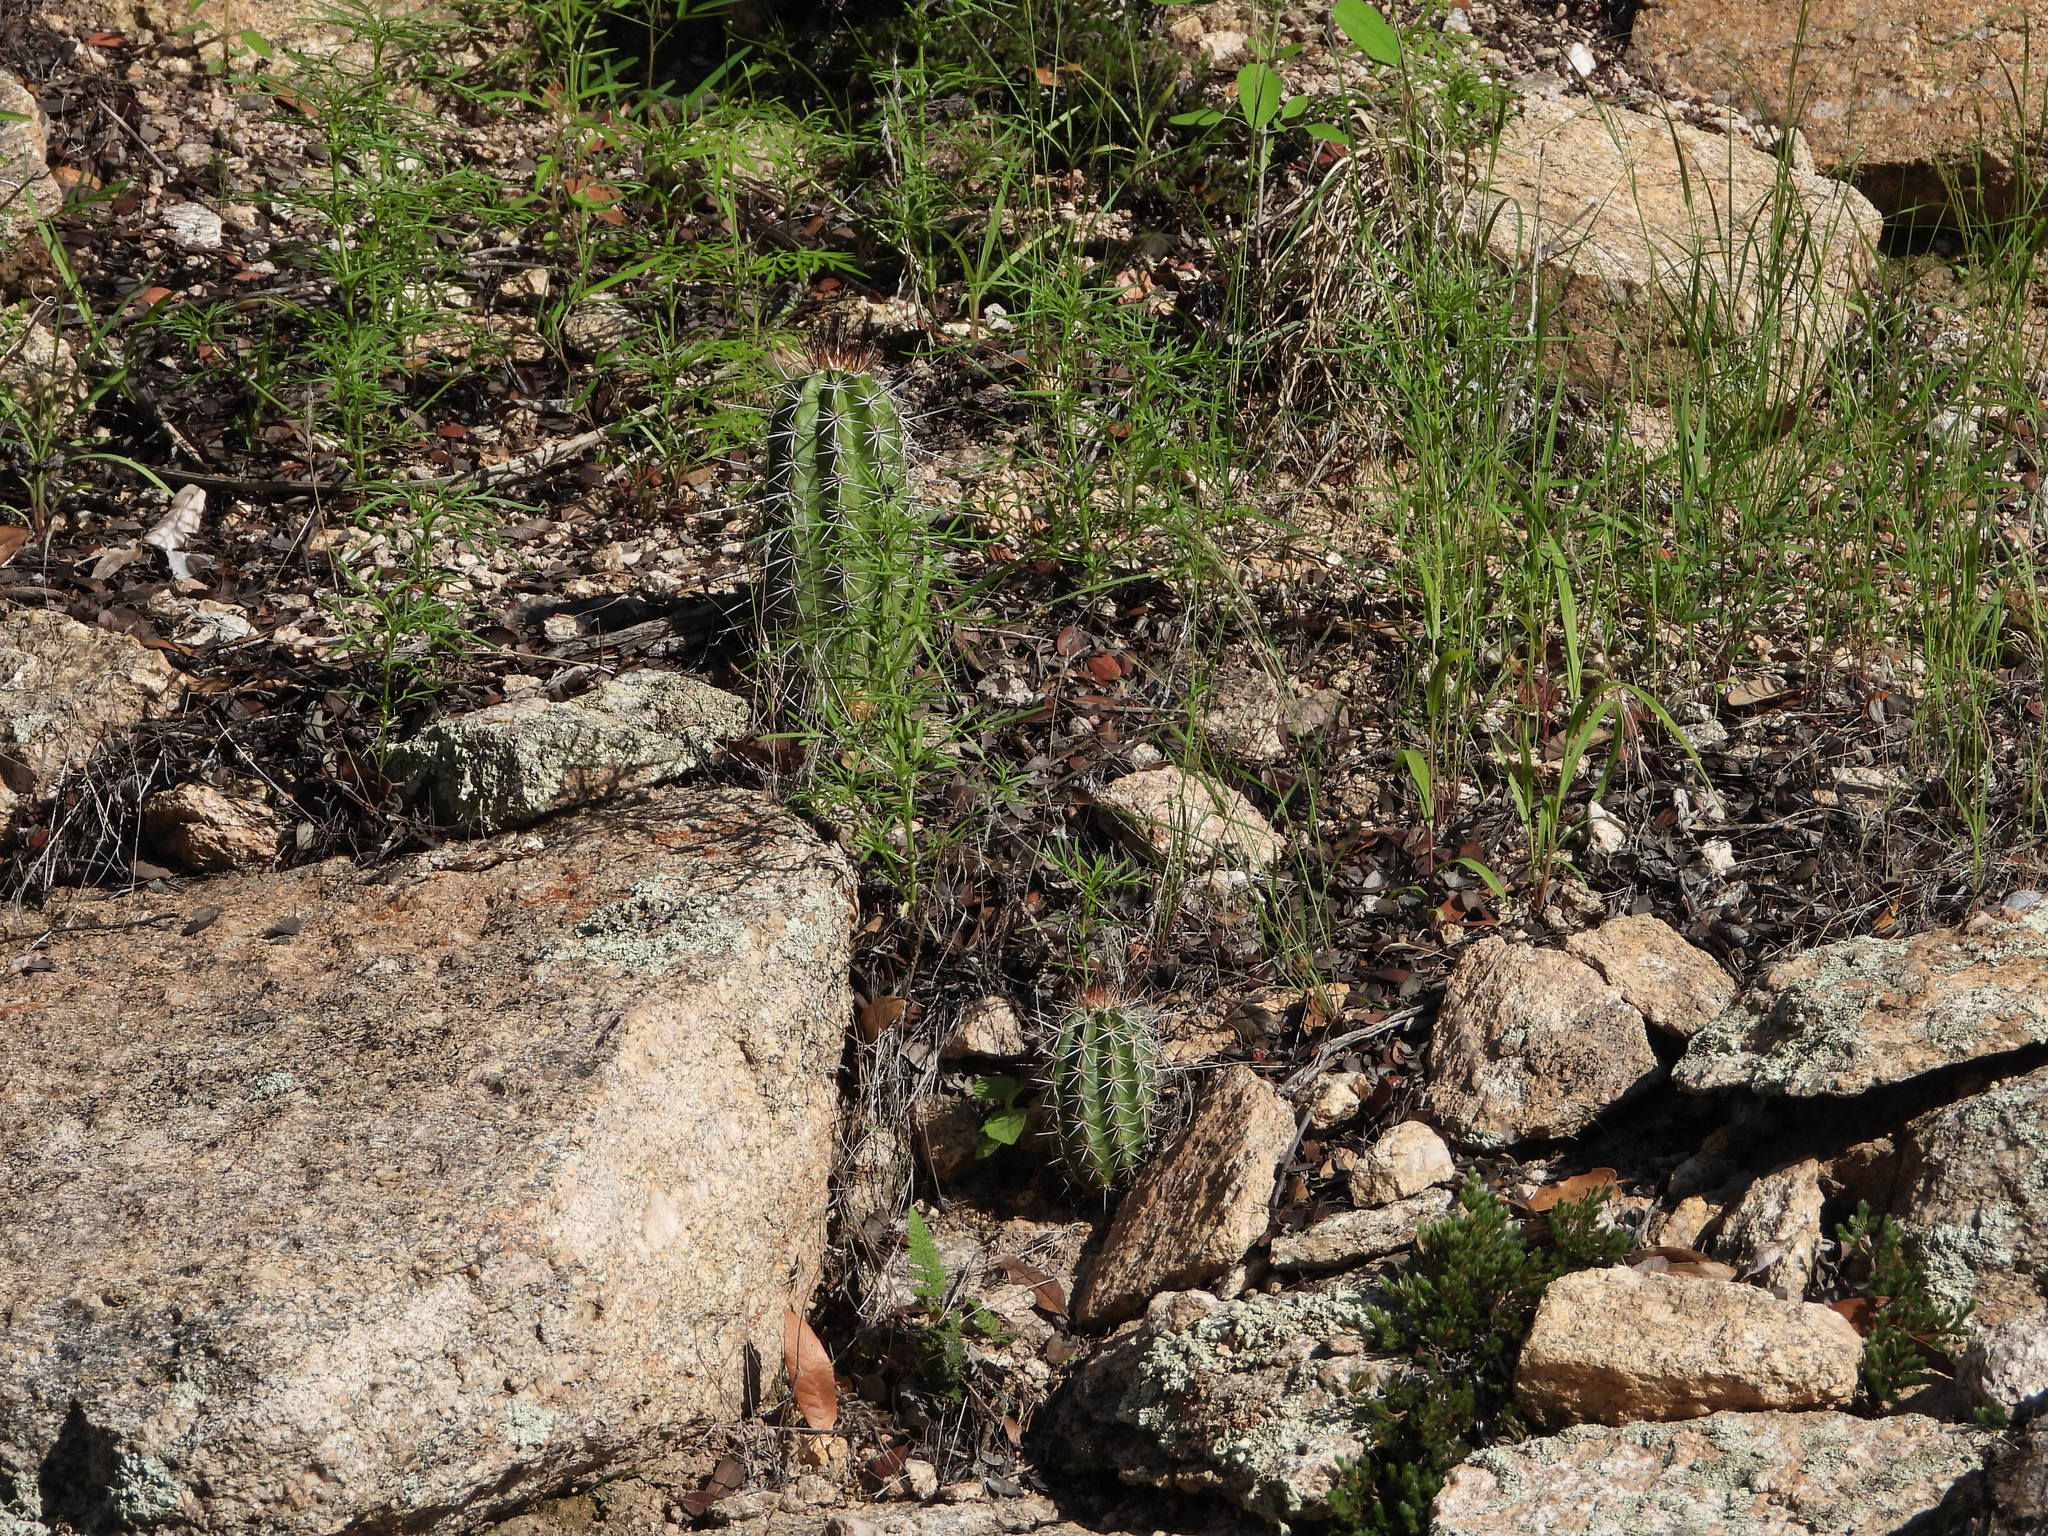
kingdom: Plantae
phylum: Tracheophyta
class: Magnoliopsida
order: Caryophyllales
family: Cactaceae
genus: Echinocereus
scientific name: Echinocereus coccineus
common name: Scarlet hedgehog cactus
